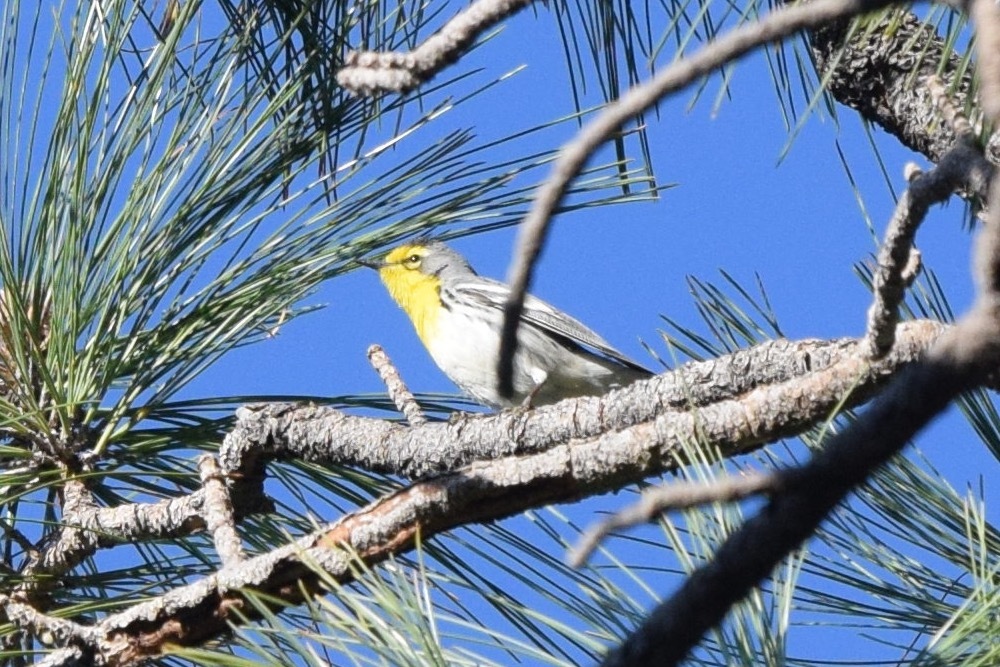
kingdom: Animalia
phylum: Chordata
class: Aves
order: Passeriformes
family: Parulidae
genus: Setophaga
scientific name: Setophaga graciae
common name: Grace's warbler
